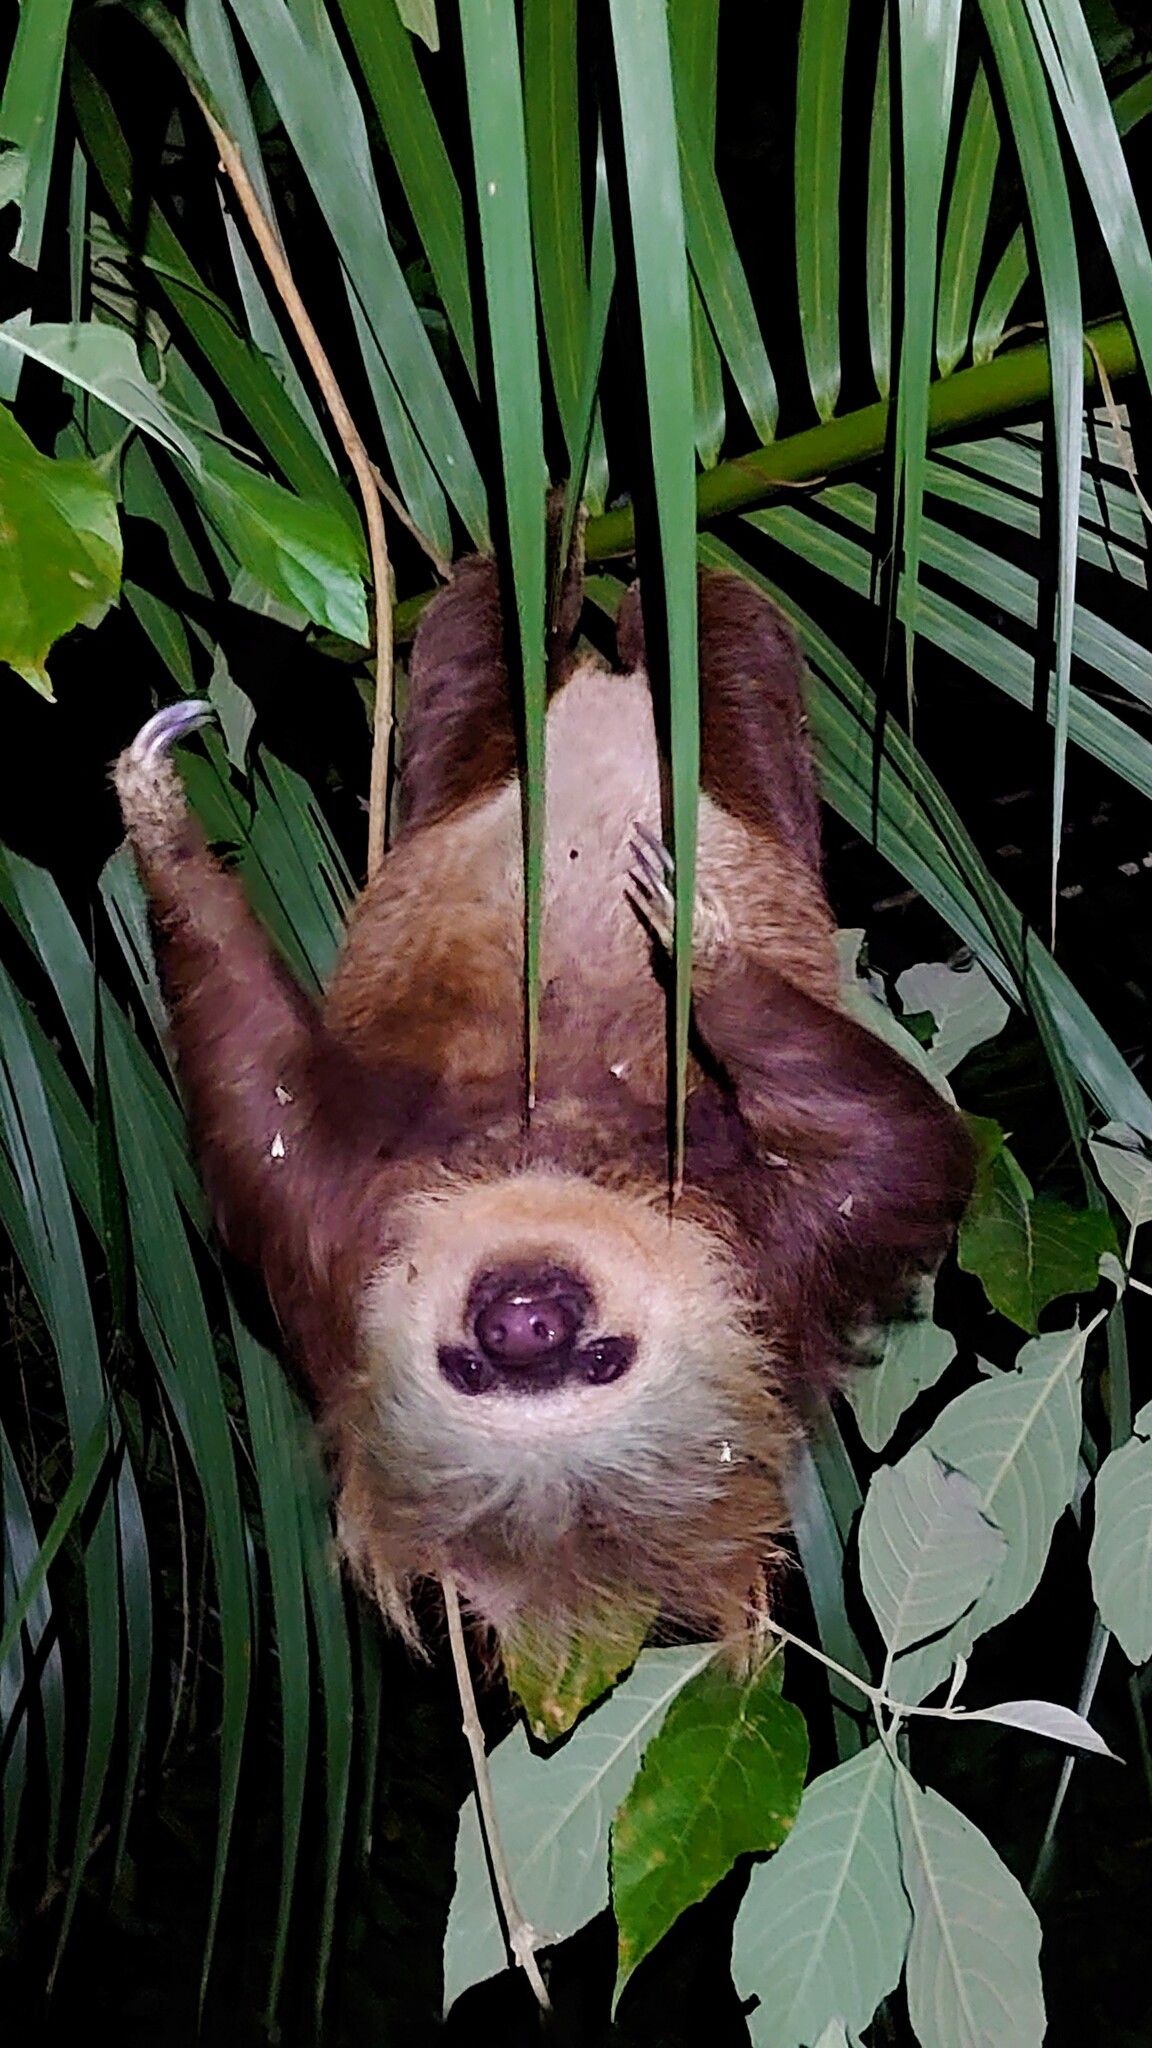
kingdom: Animalia
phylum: Chordata
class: Mammalia
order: Pilosa
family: Megalonychidae
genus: Choloepus
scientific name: Choloepus hoffmanni
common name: Hoffmann's two-toed sloth
